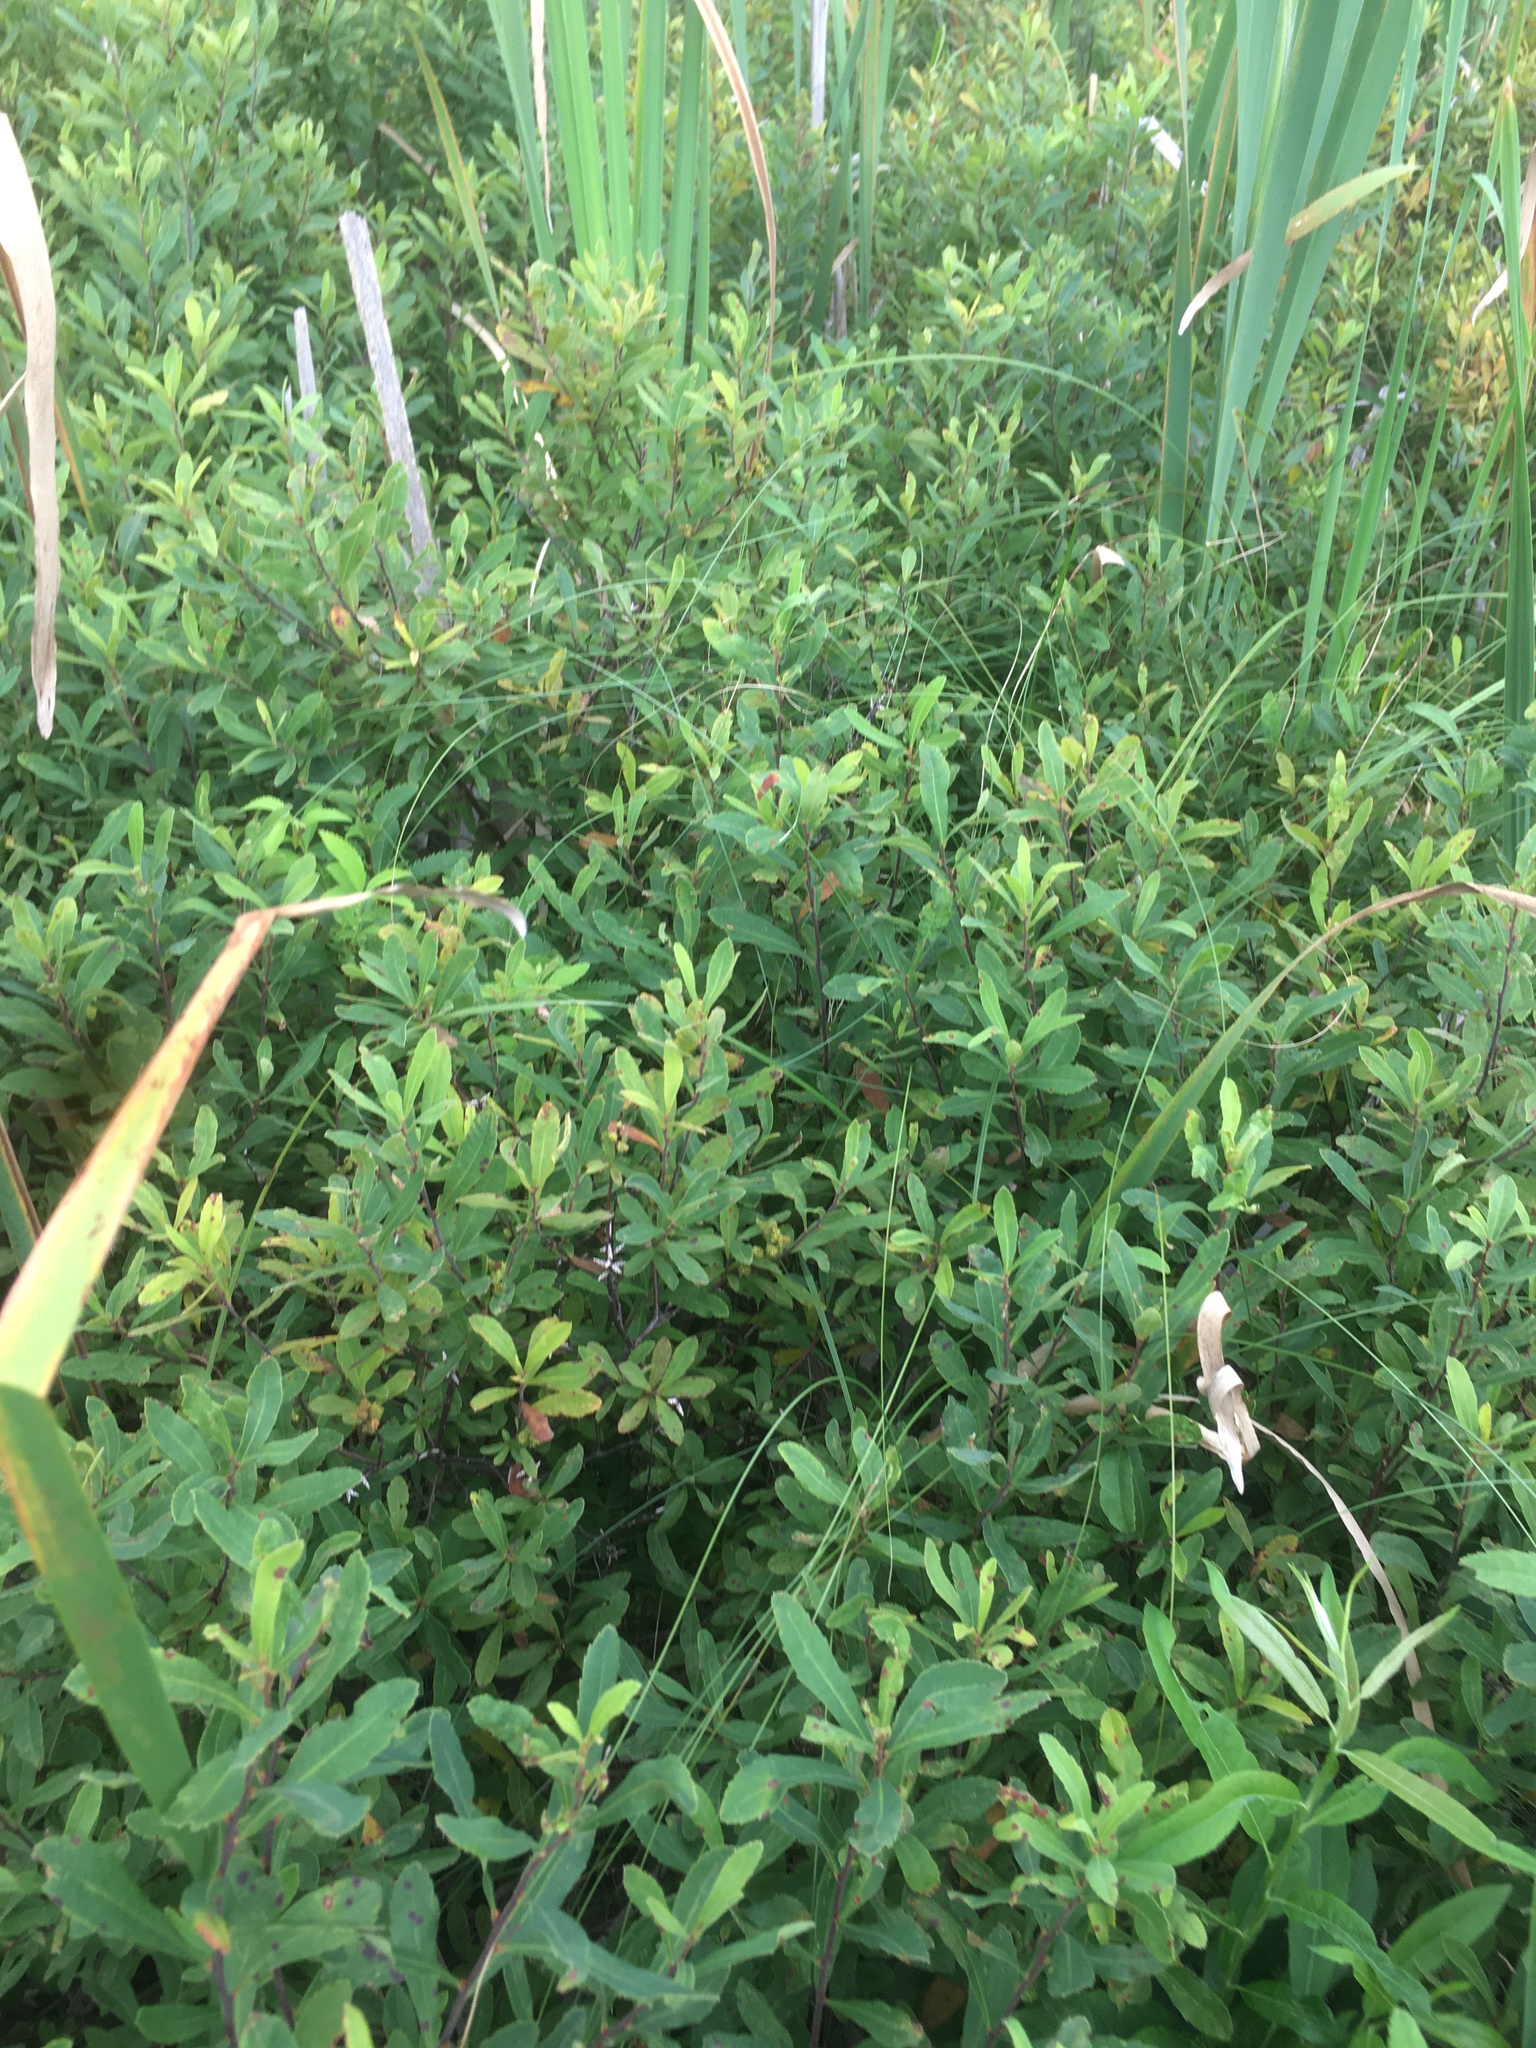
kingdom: Plantae
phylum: Tracheophyta
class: Magnoliopsida
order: Fagales
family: Myricaceae
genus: Myrica
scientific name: Myrica gale
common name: Sweet gale
